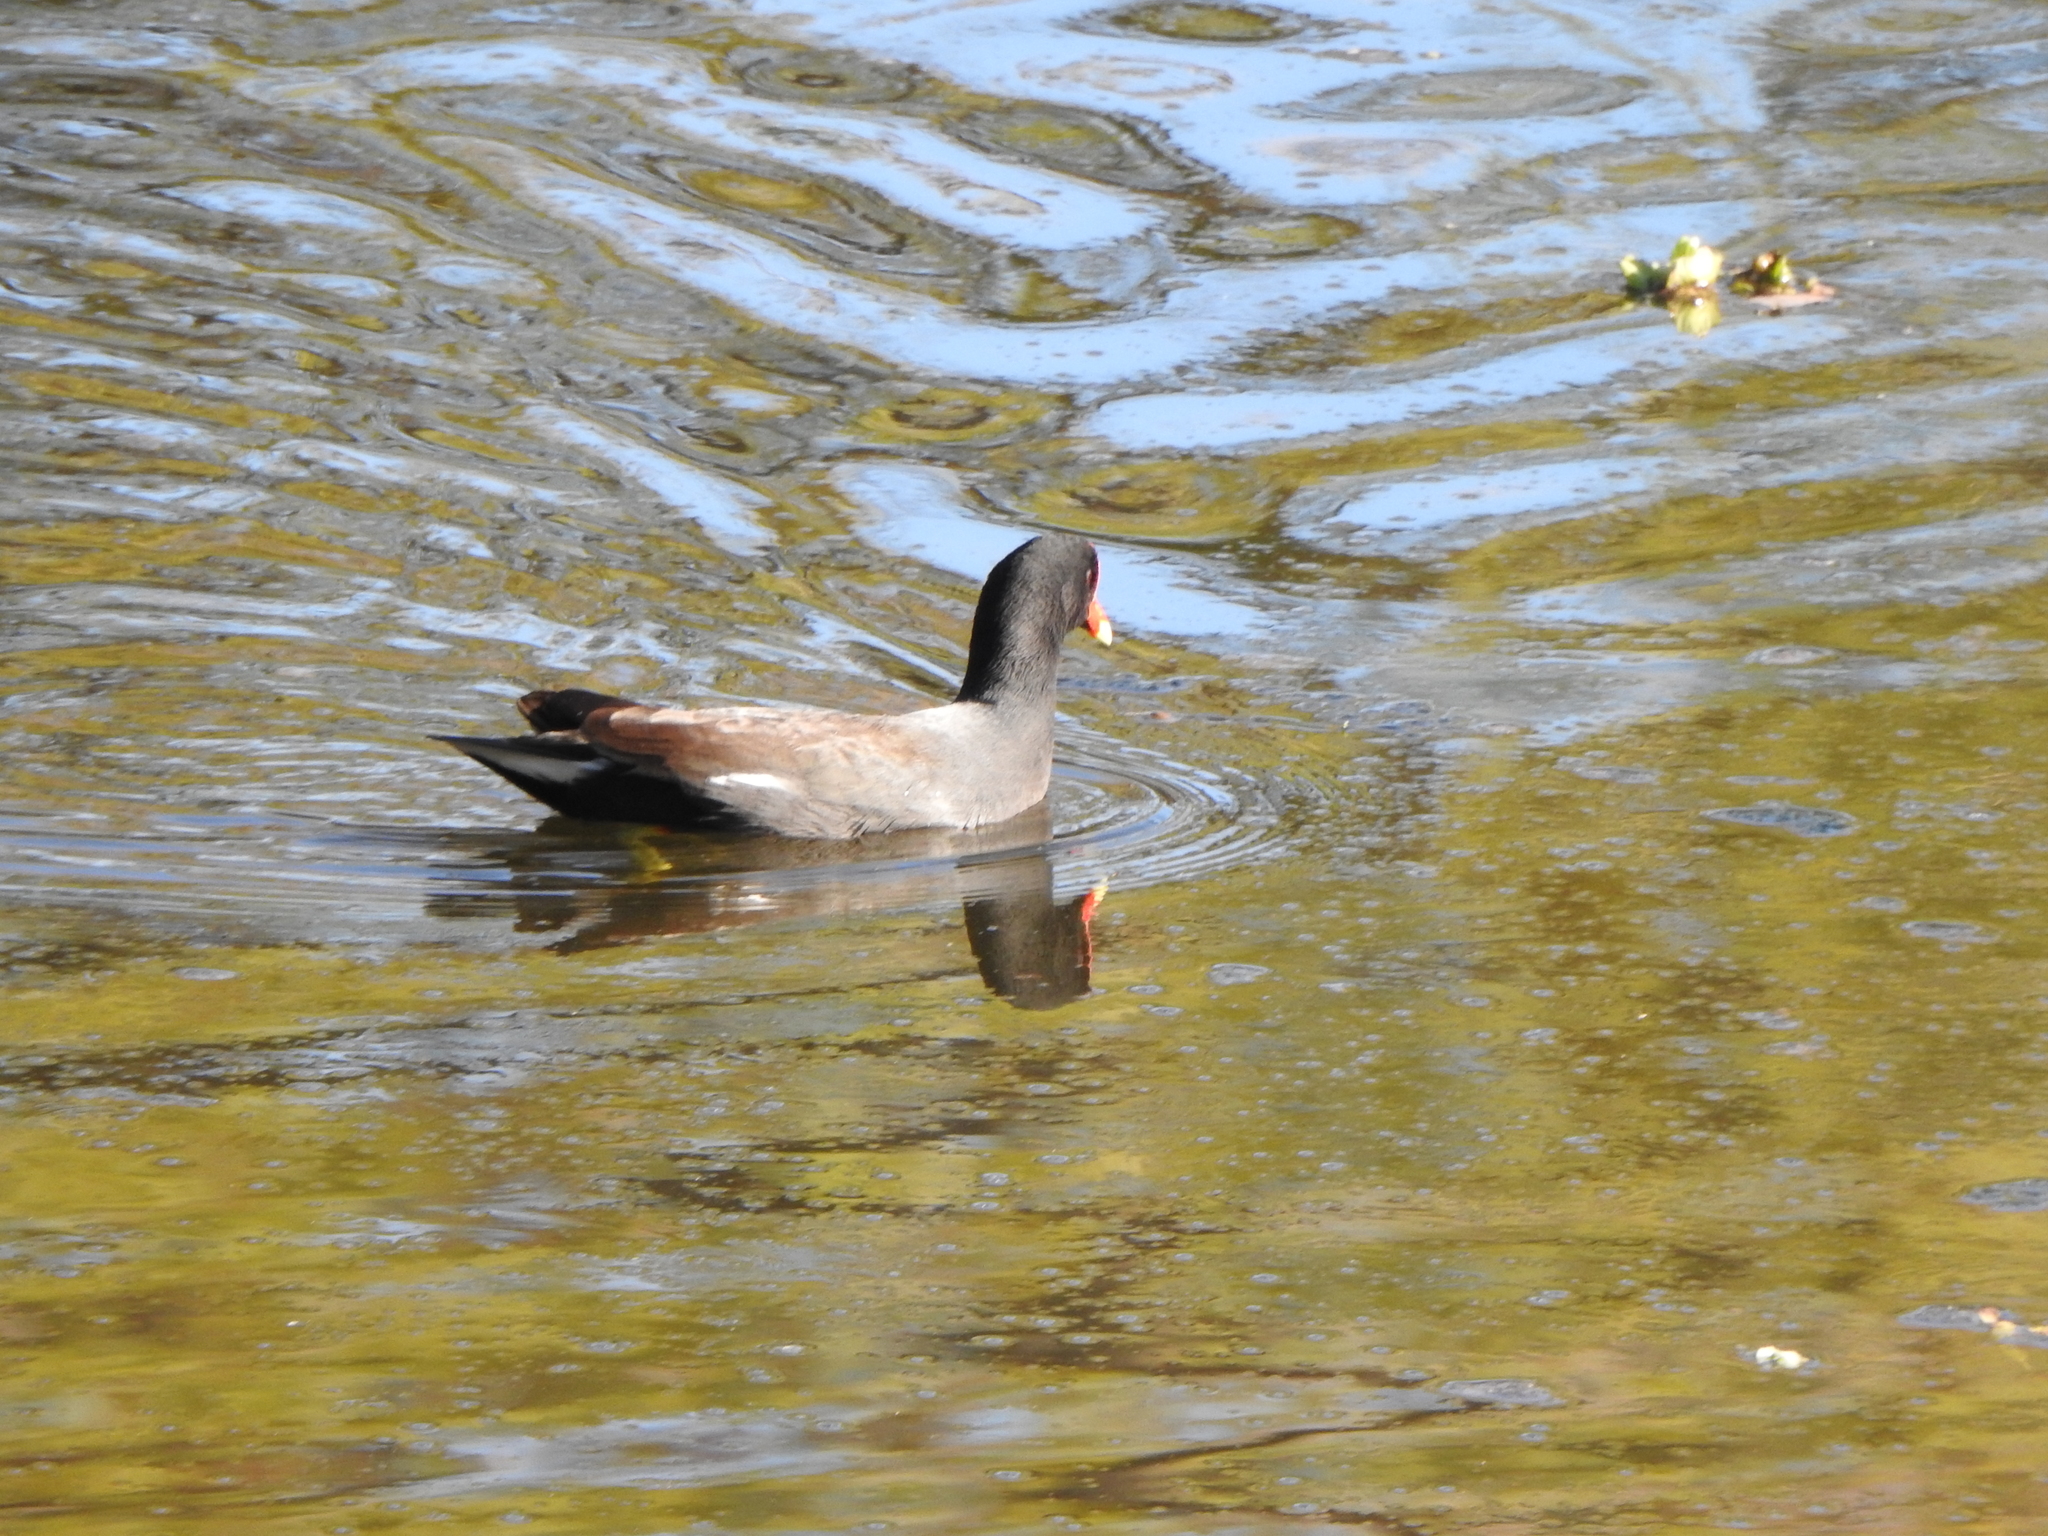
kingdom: Animalia
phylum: Chordata
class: Aves
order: Gruiformes
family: Rallidae
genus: Gallinula
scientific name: Gallinula chloropus
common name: Common moorhen
